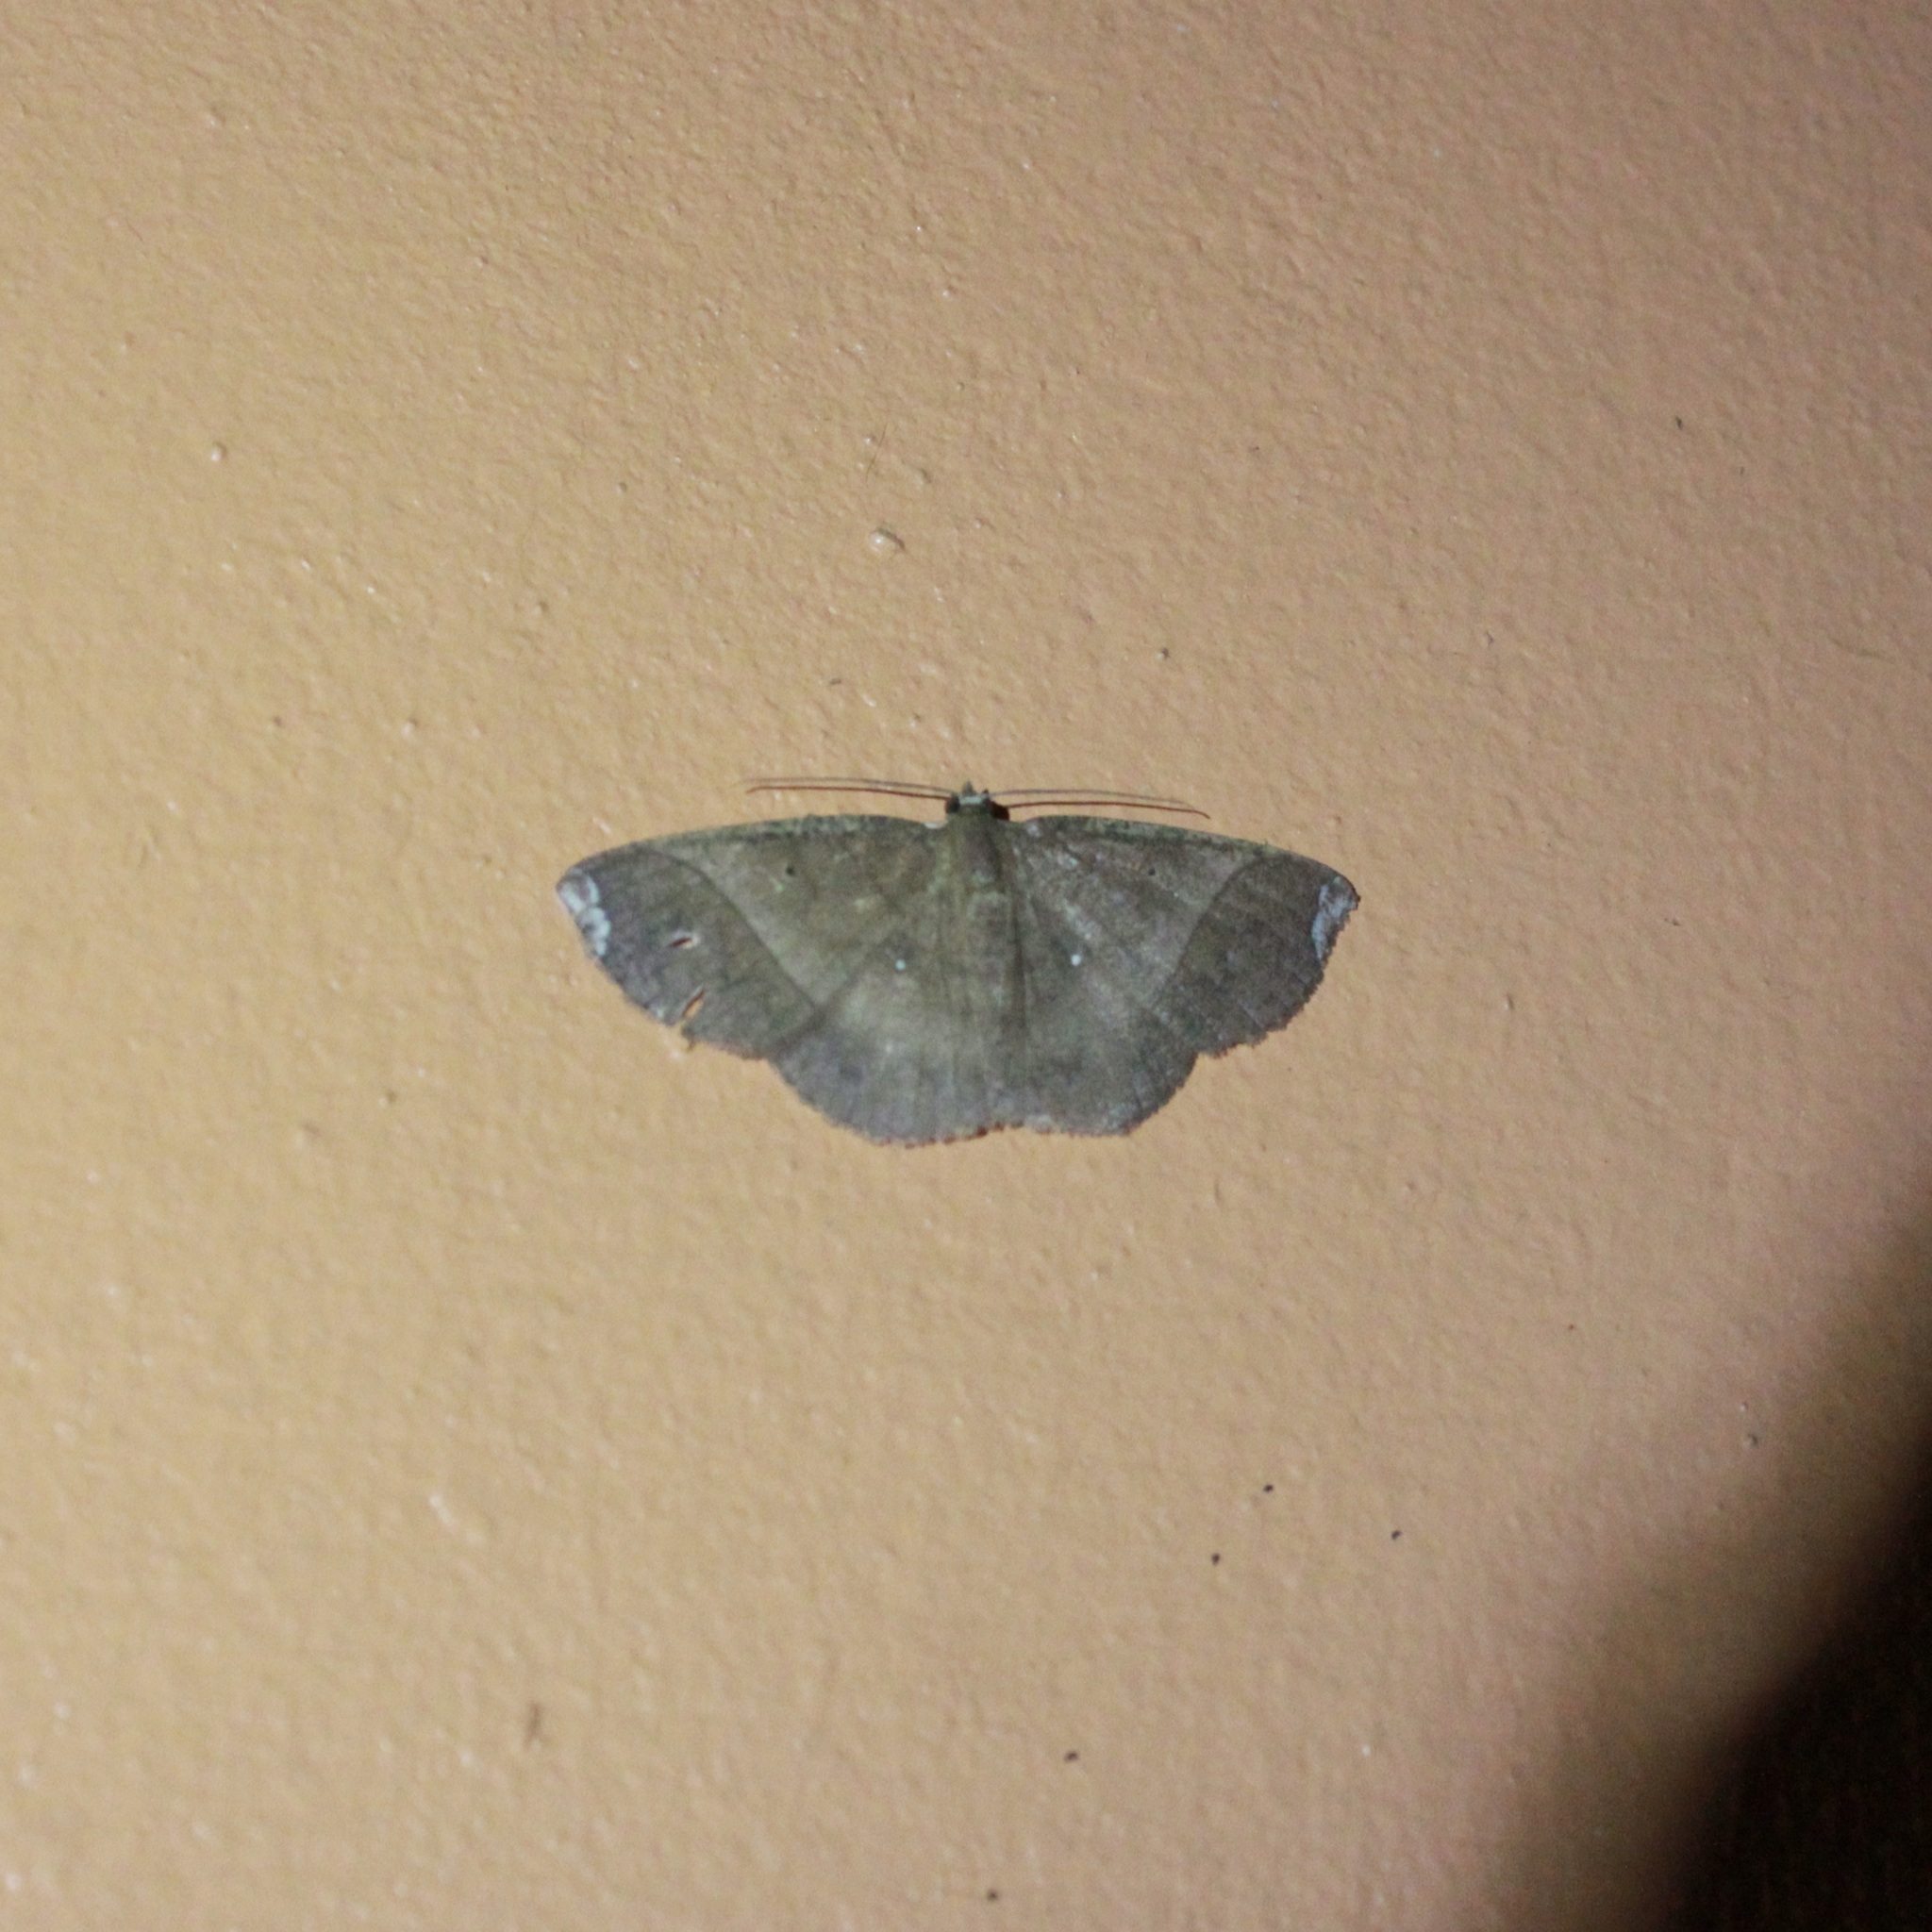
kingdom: Animalia
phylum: Arthropoda
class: Insecta
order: Lepidoptera
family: Geometridae
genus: Thysanopyga
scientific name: Thysanopyga abdominaria
